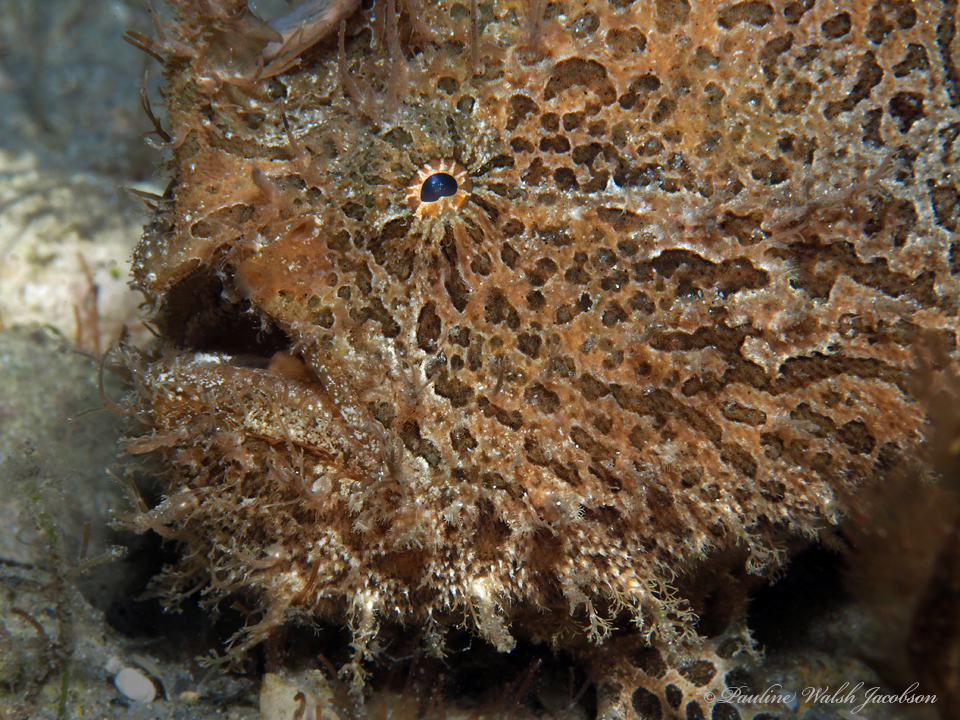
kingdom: Animalia
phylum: Chordata
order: Lophiiformes
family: Antennariidae
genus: Antennarius
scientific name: Antennarius striatus
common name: Striated frogfish
